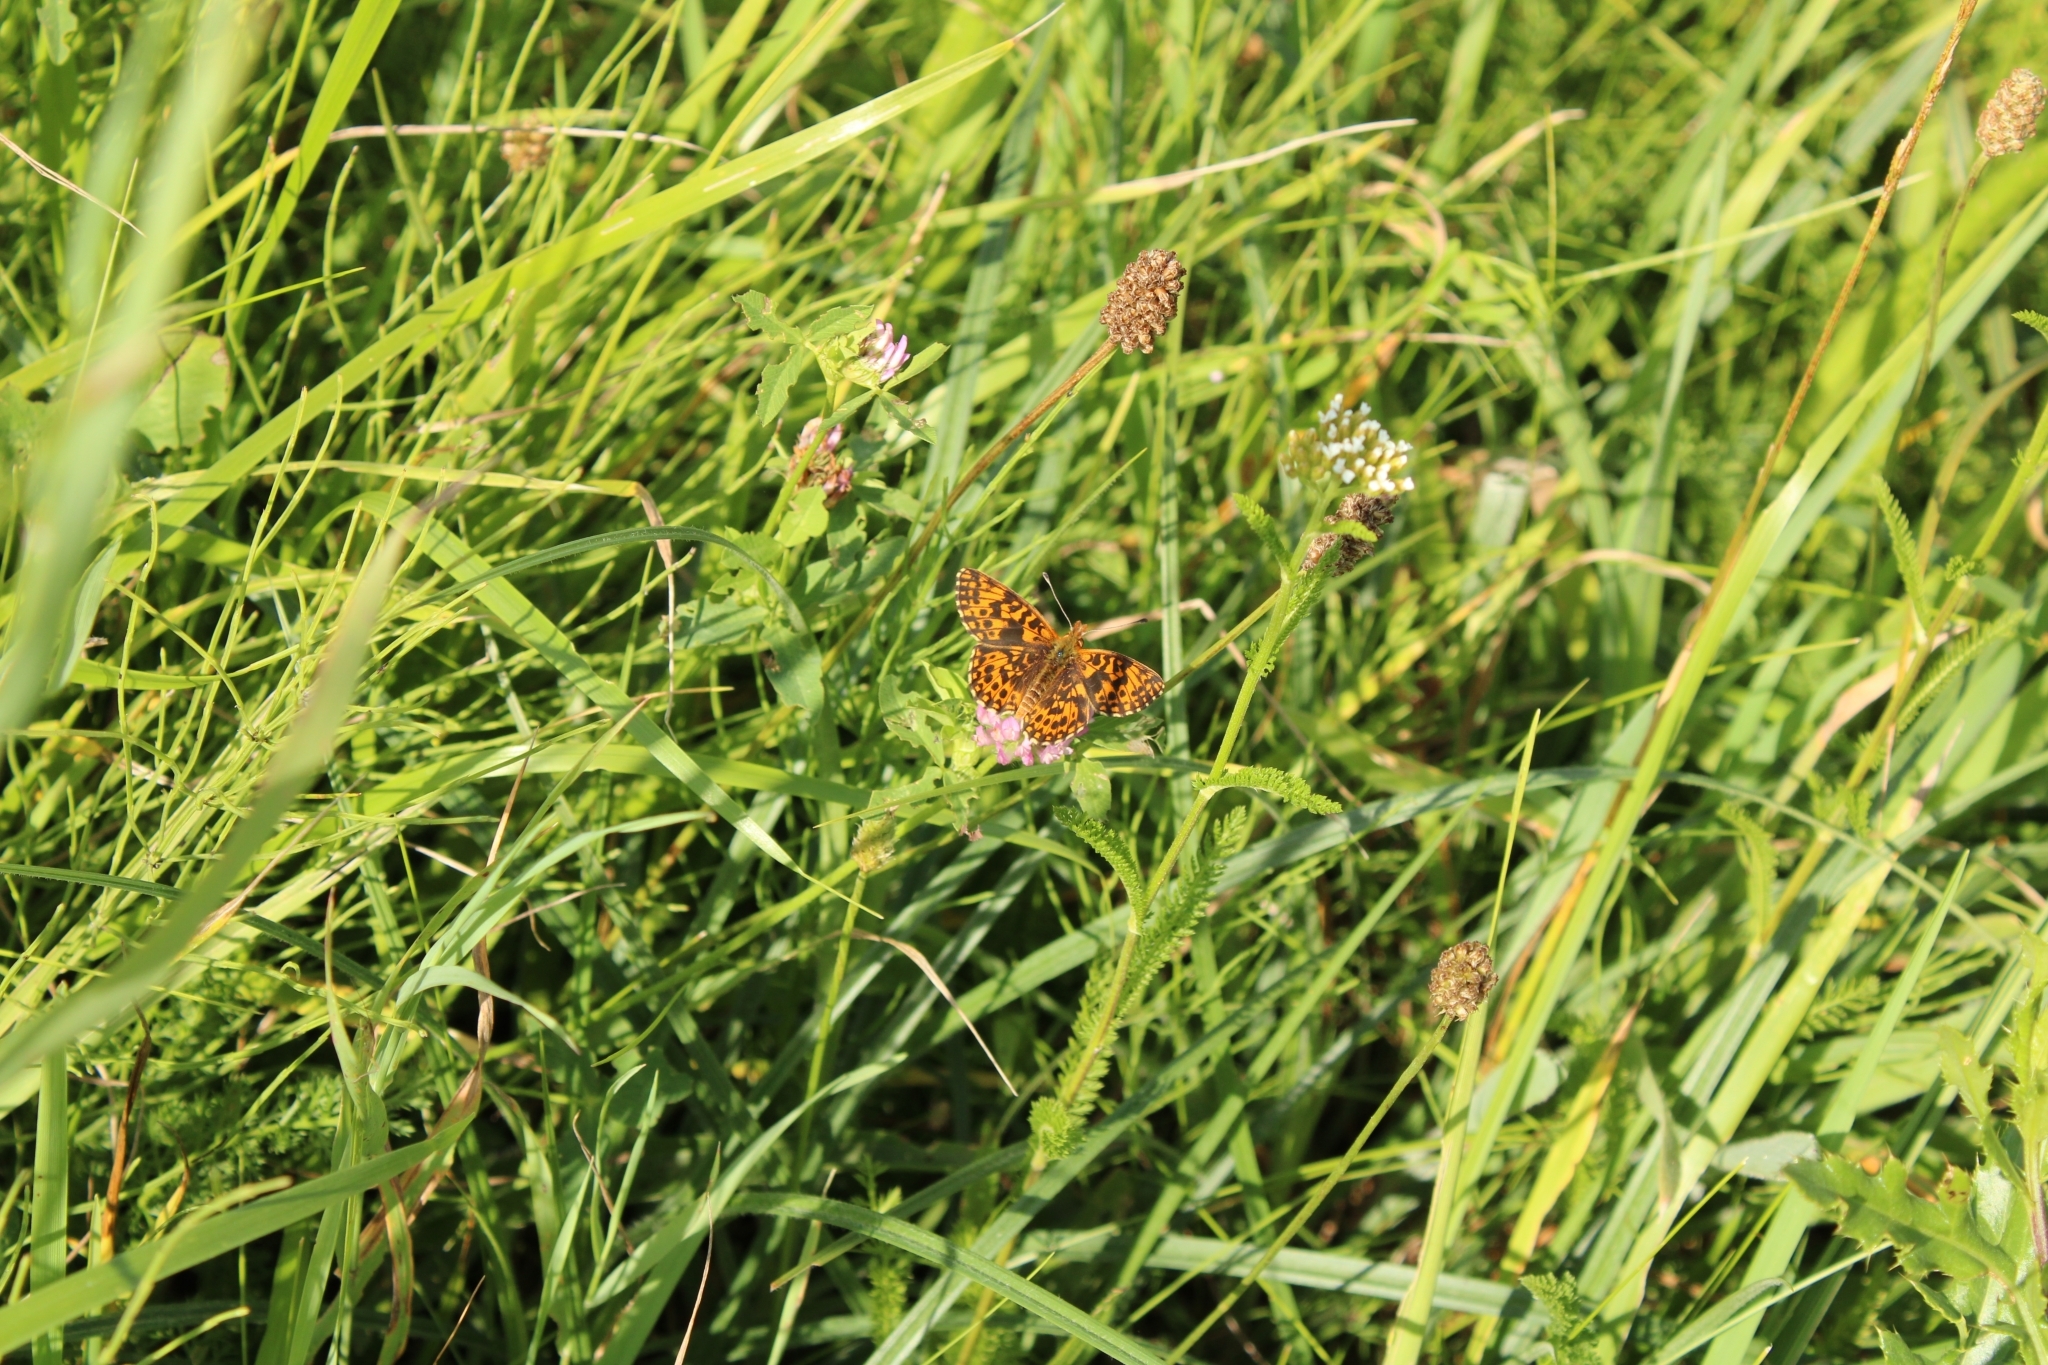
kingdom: Animalia
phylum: Arthropoda
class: Insecta
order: Lepidoptera
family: Nymphalidae
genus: Boloria
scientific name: Boloria dia
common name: Weaver's fritillary
